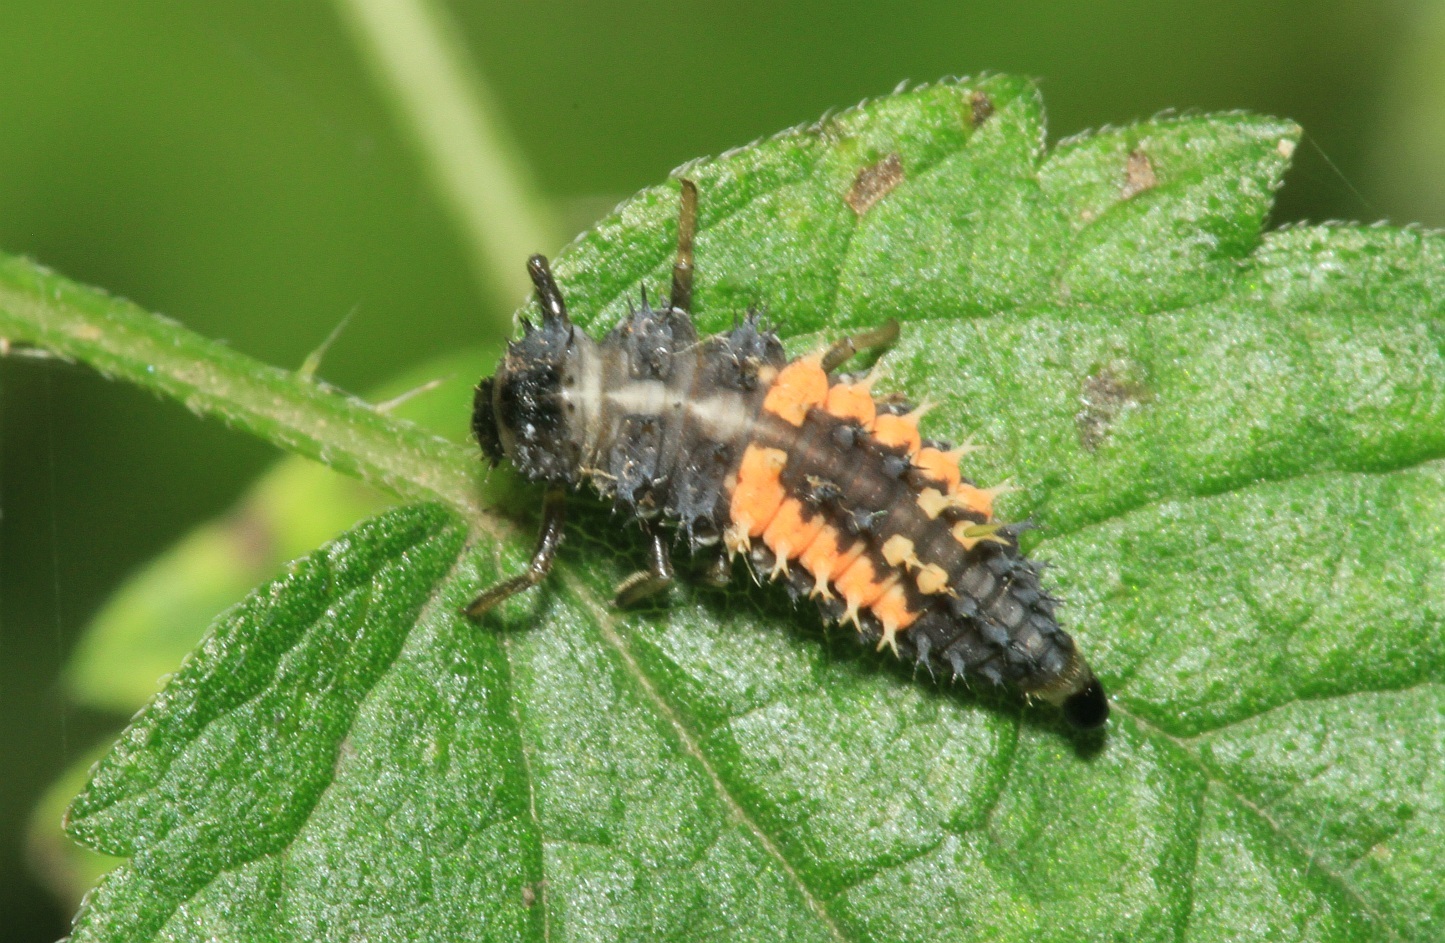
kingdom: Animalia
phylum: Arthropoda
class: Insecta
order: Coleoptera
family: Coccinellidae
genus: Harmonia
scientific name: Harmonia axyridis
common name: Harlequin ladybird
